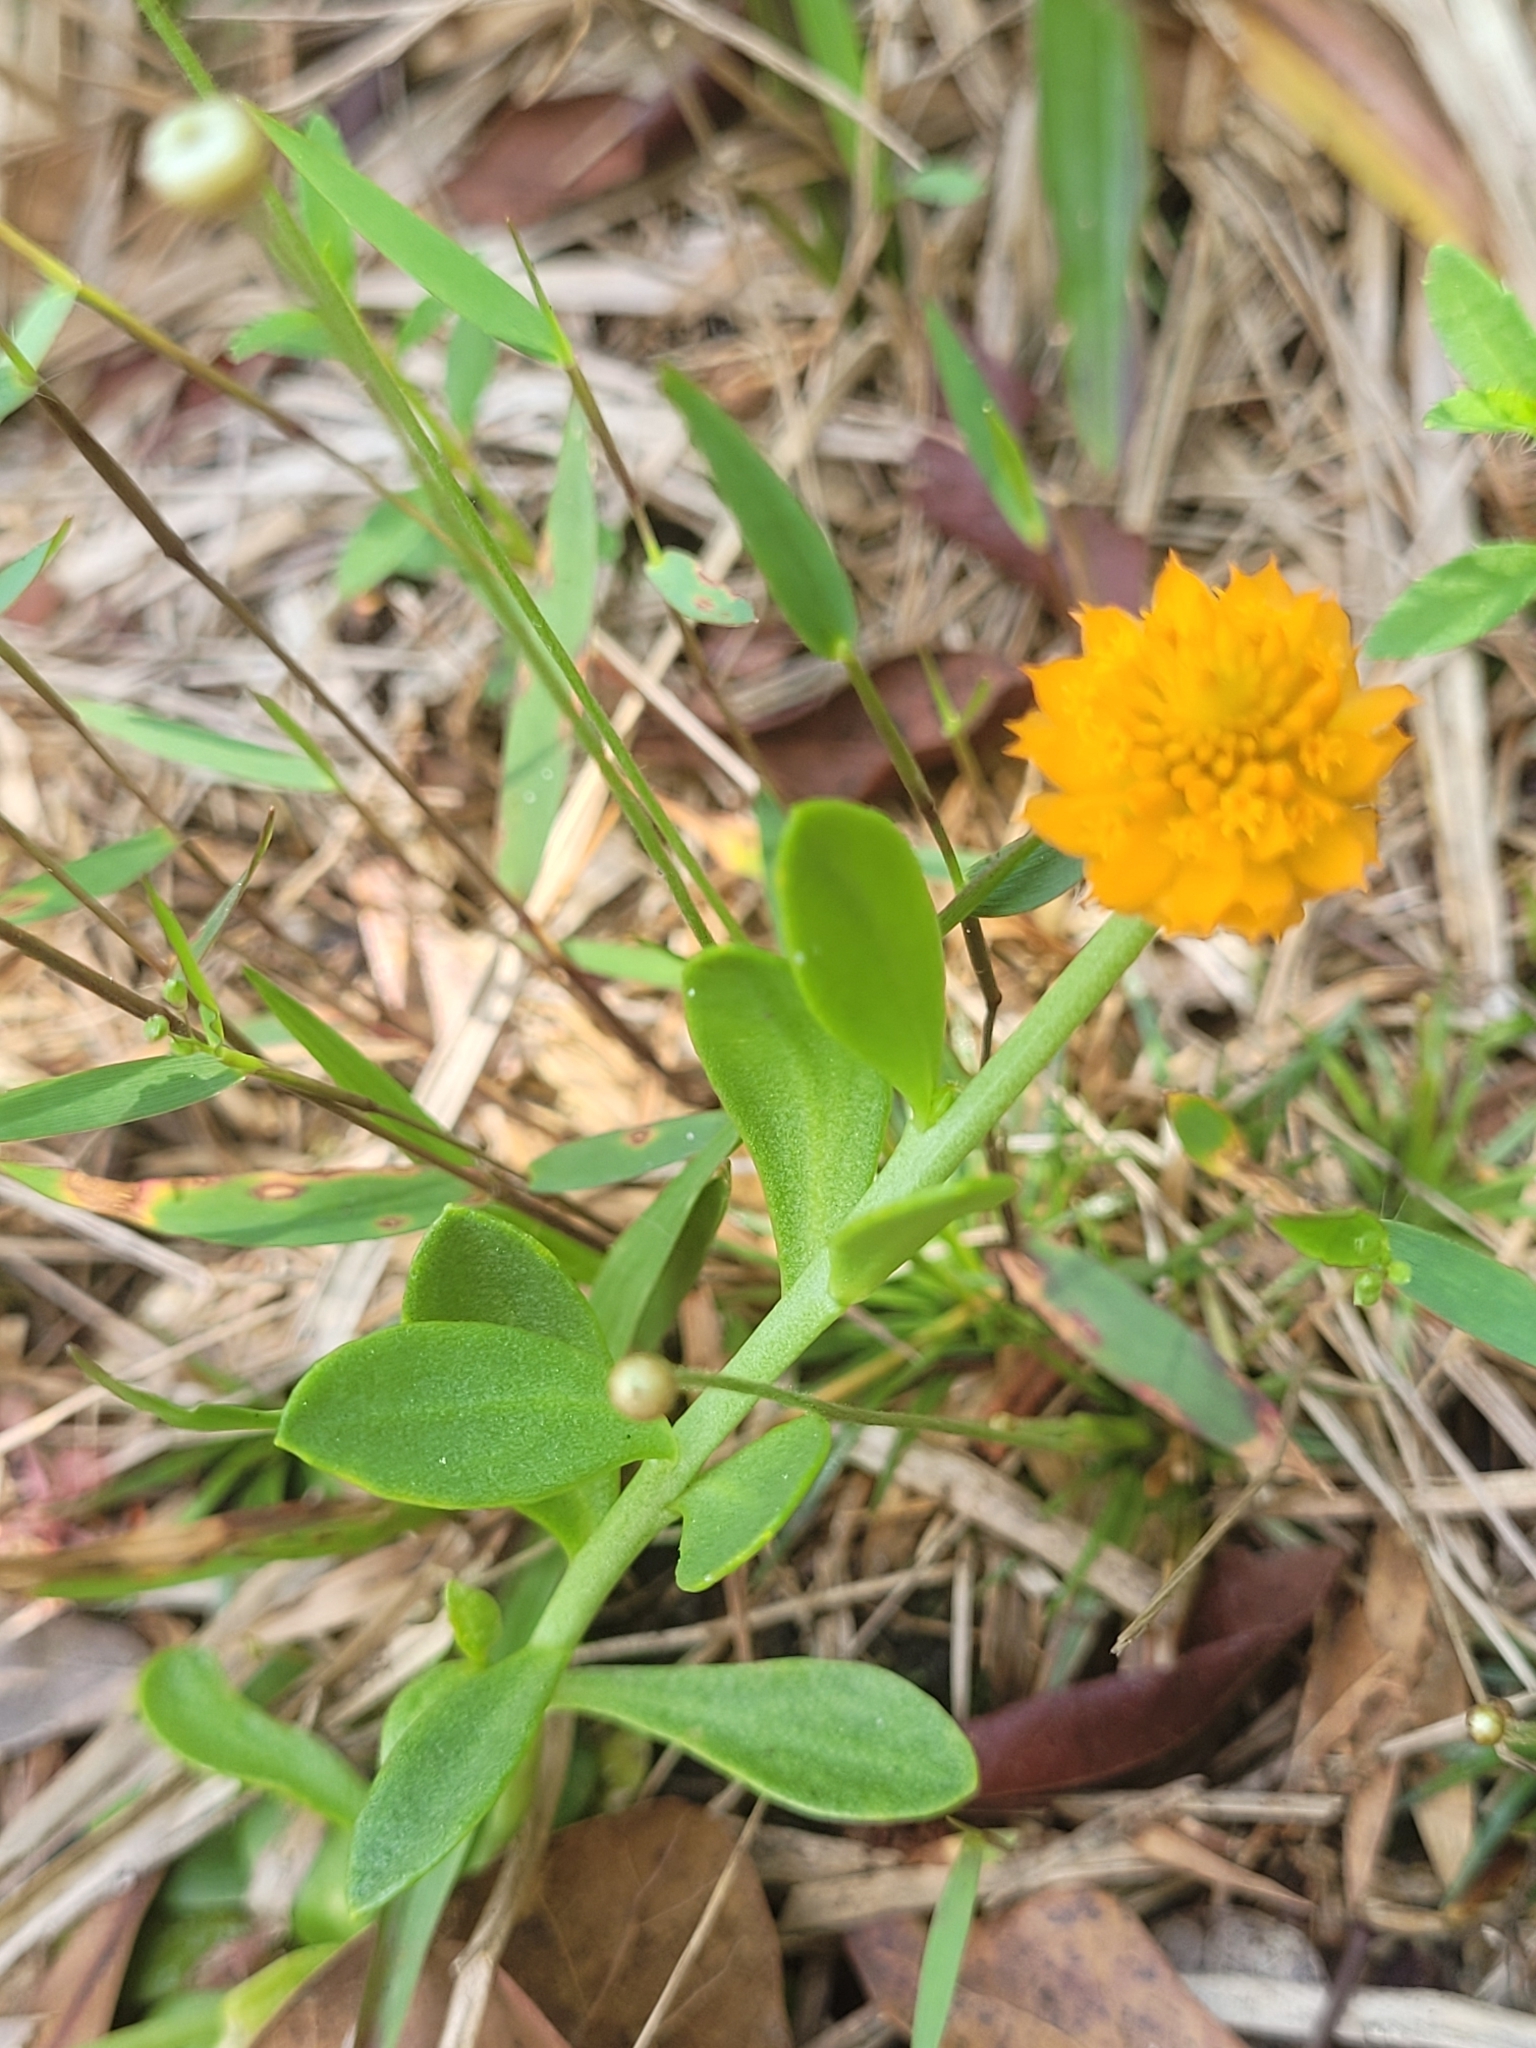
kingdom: Plantae
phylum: Tracheophyta
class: Magnoliopsida
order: Fabales
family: Polygalaceae
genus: Polygala
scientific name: Polygala lutea
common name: Orange milkwort
